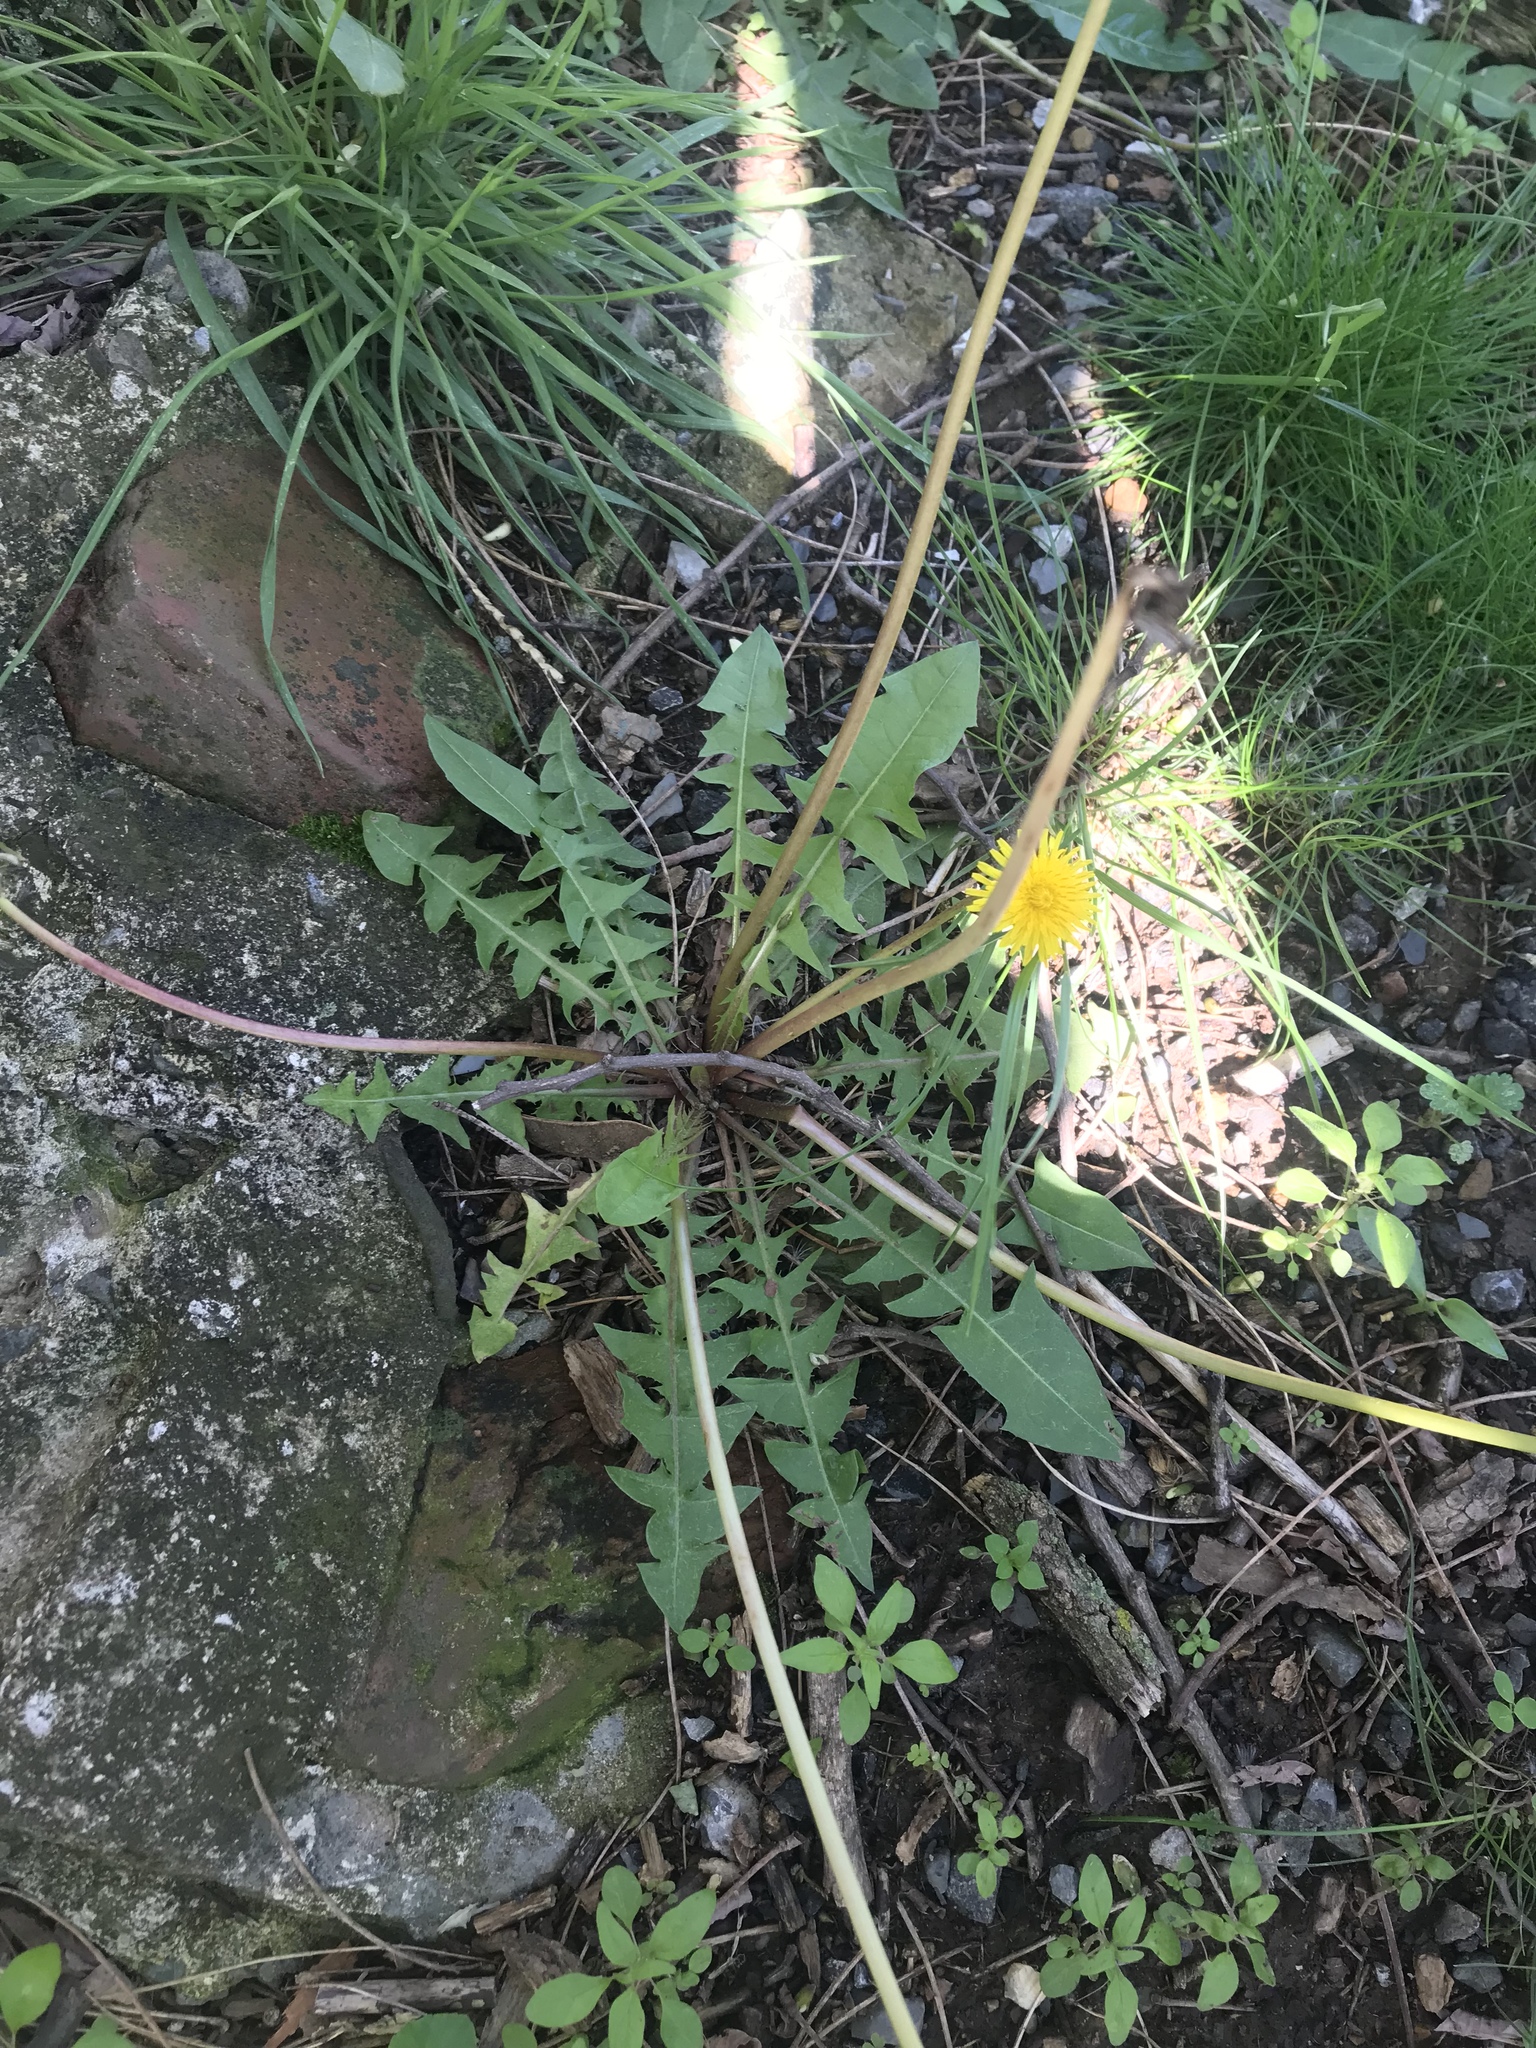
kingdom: Plantae
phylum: Tracheophyta
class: Magnoliopsida
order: Asterales
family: Asteraceae
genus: Taraxacum
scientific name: Taraxacum officinale
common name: Common dandelion
